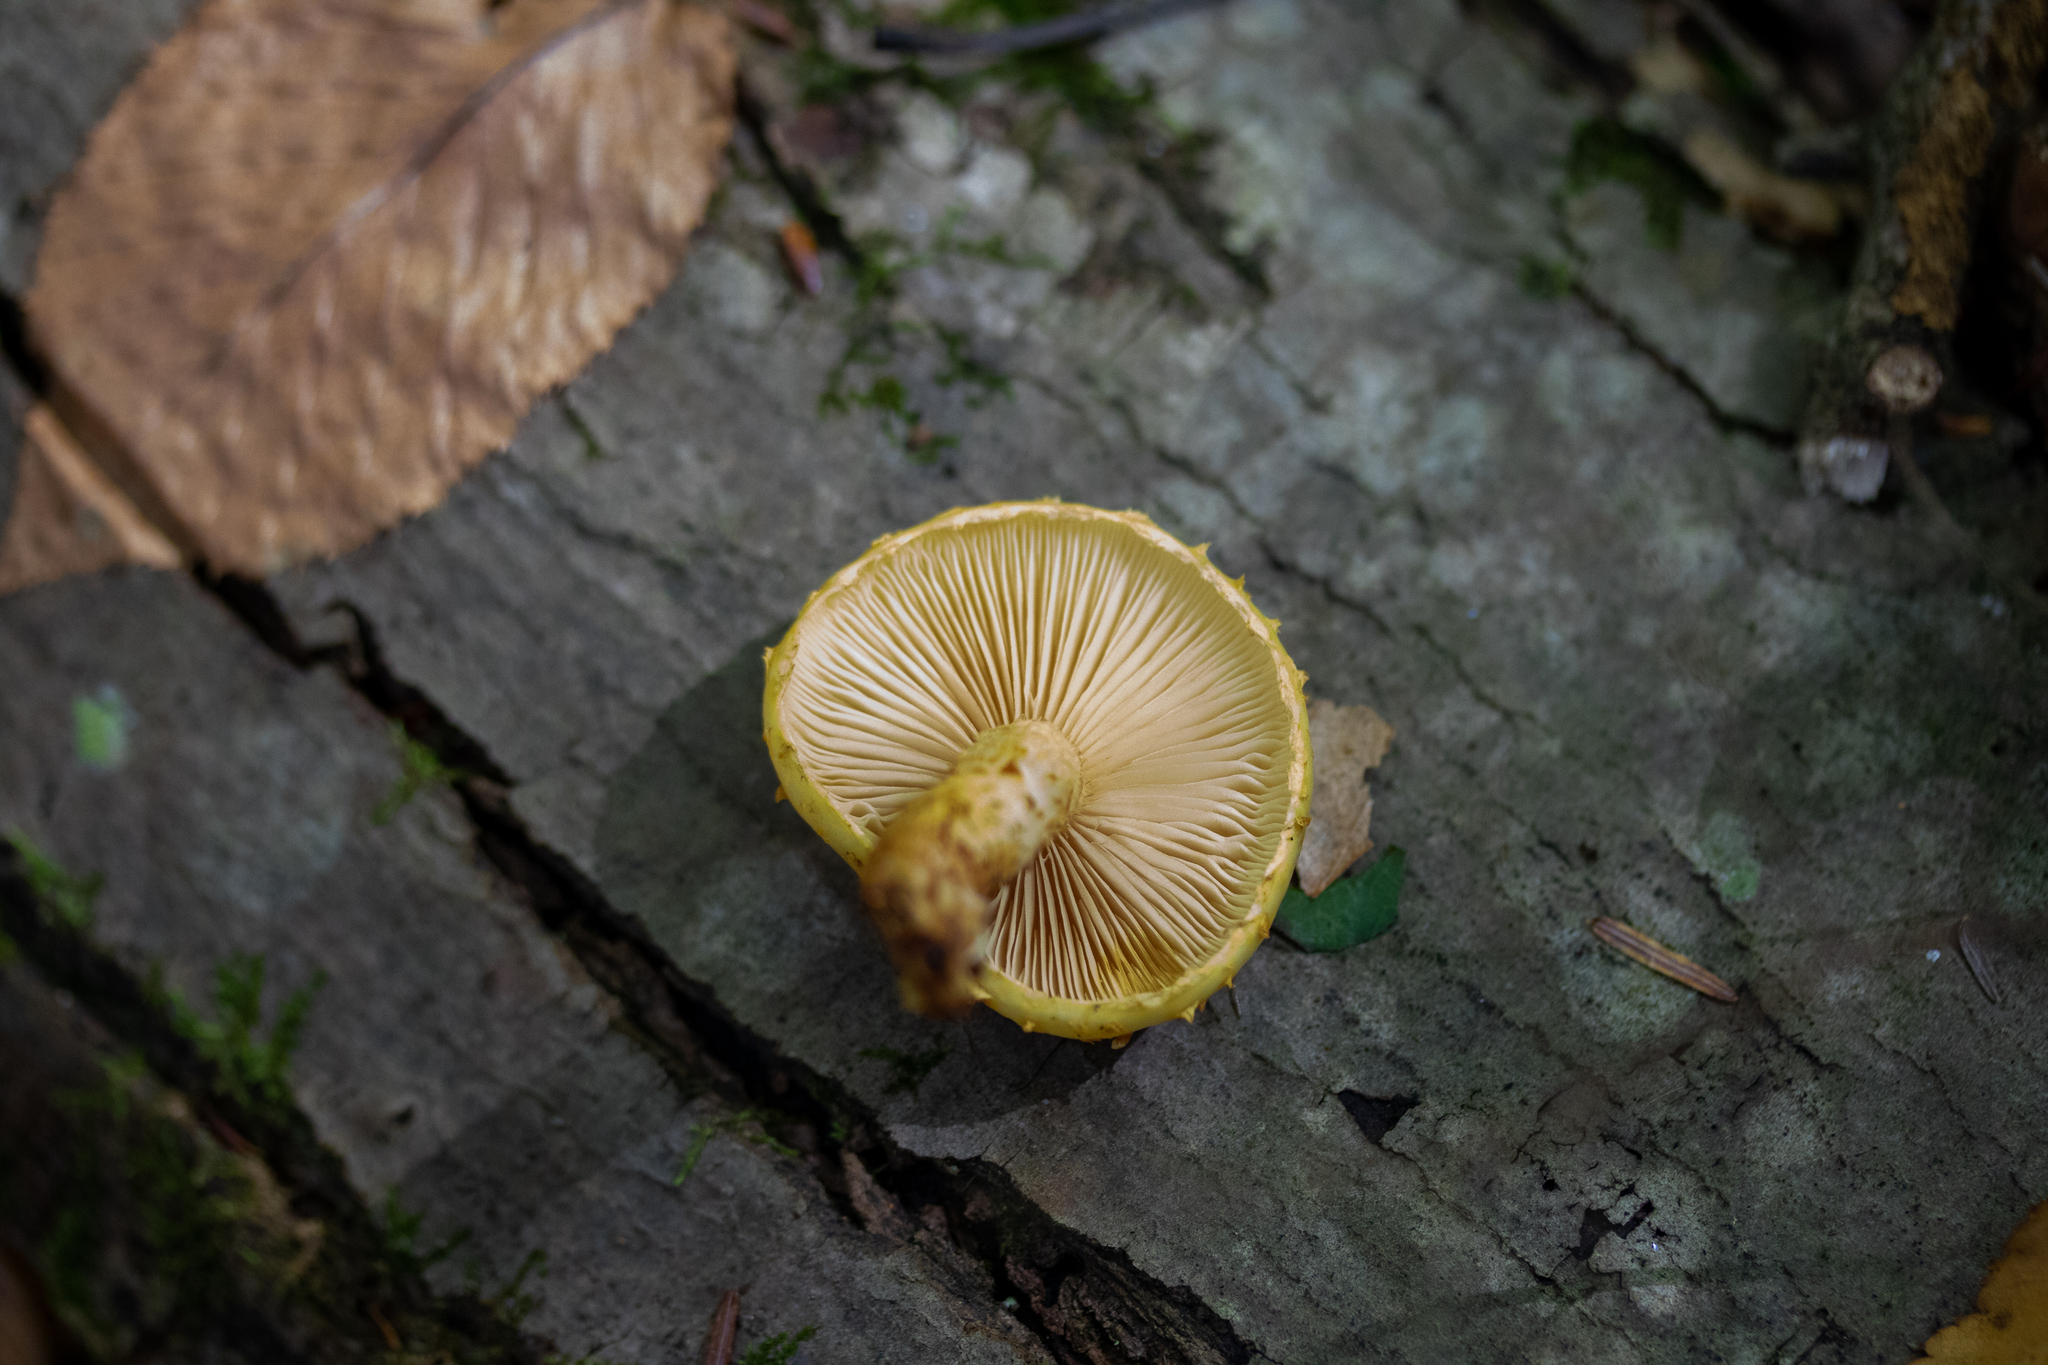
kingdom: Fungi
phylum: Basidiomycota
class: Agaricomycetes
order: Agaricales
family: Strophariaceae
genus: Pholiota
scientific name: Pholiota limonella
